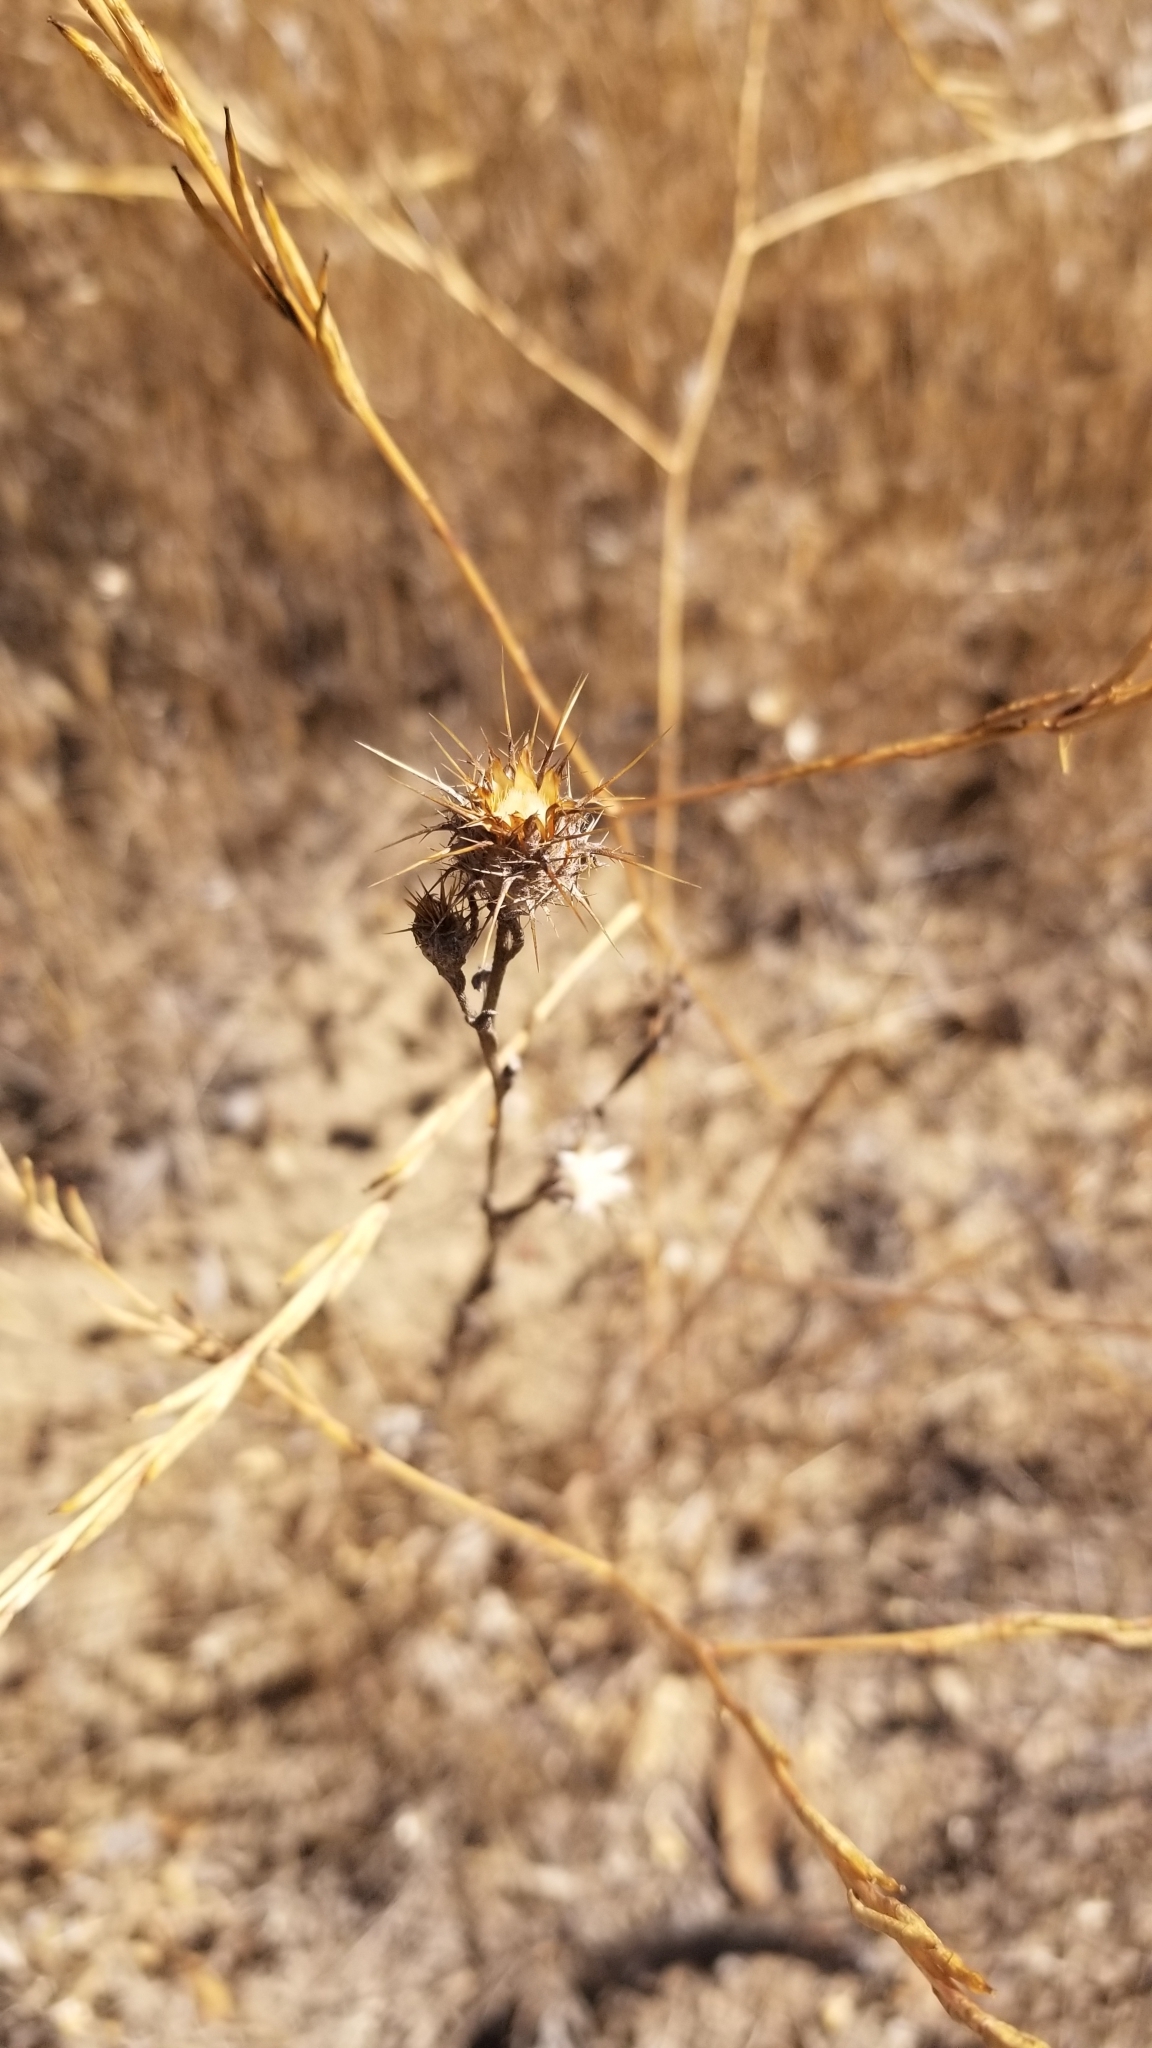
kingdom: Plantae
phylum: Tracheophyta
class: Magnoliopsida
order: Asterales
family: Asteraceae
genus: Centaurea
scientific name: Centaurea solstitialis
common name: Yellow star-thistle
